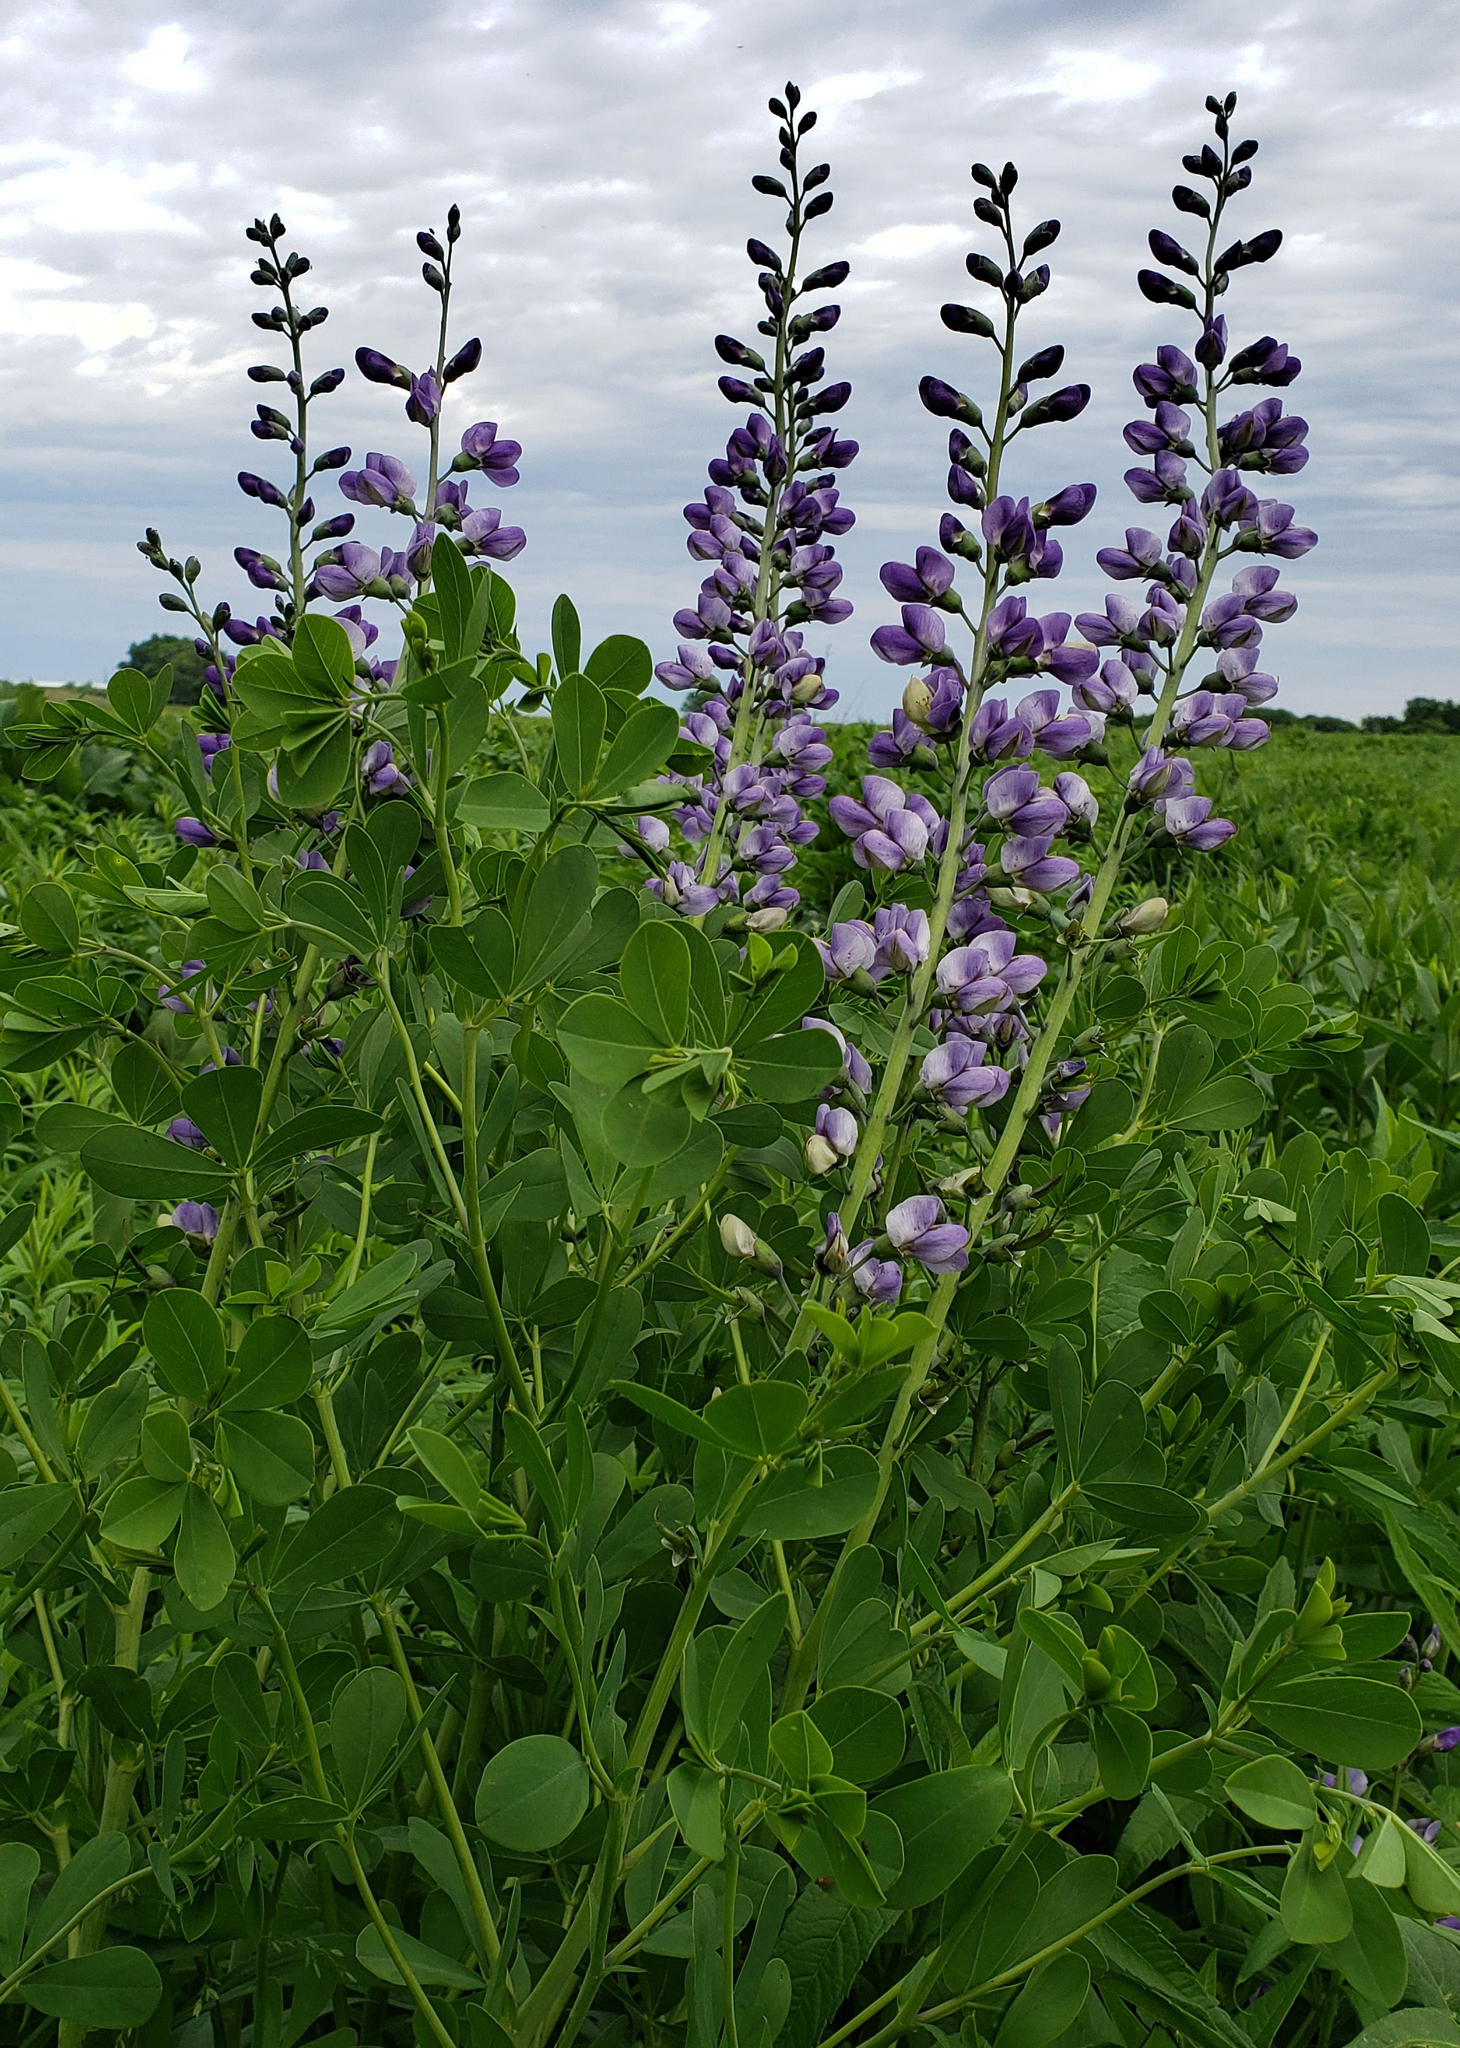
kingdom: Plantae
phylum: Tracheophyta
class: Magnoliopsida
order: Fabales
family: Fabaceae
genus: Baptisia
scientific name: Baptisia australis
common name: Blue false indigo
